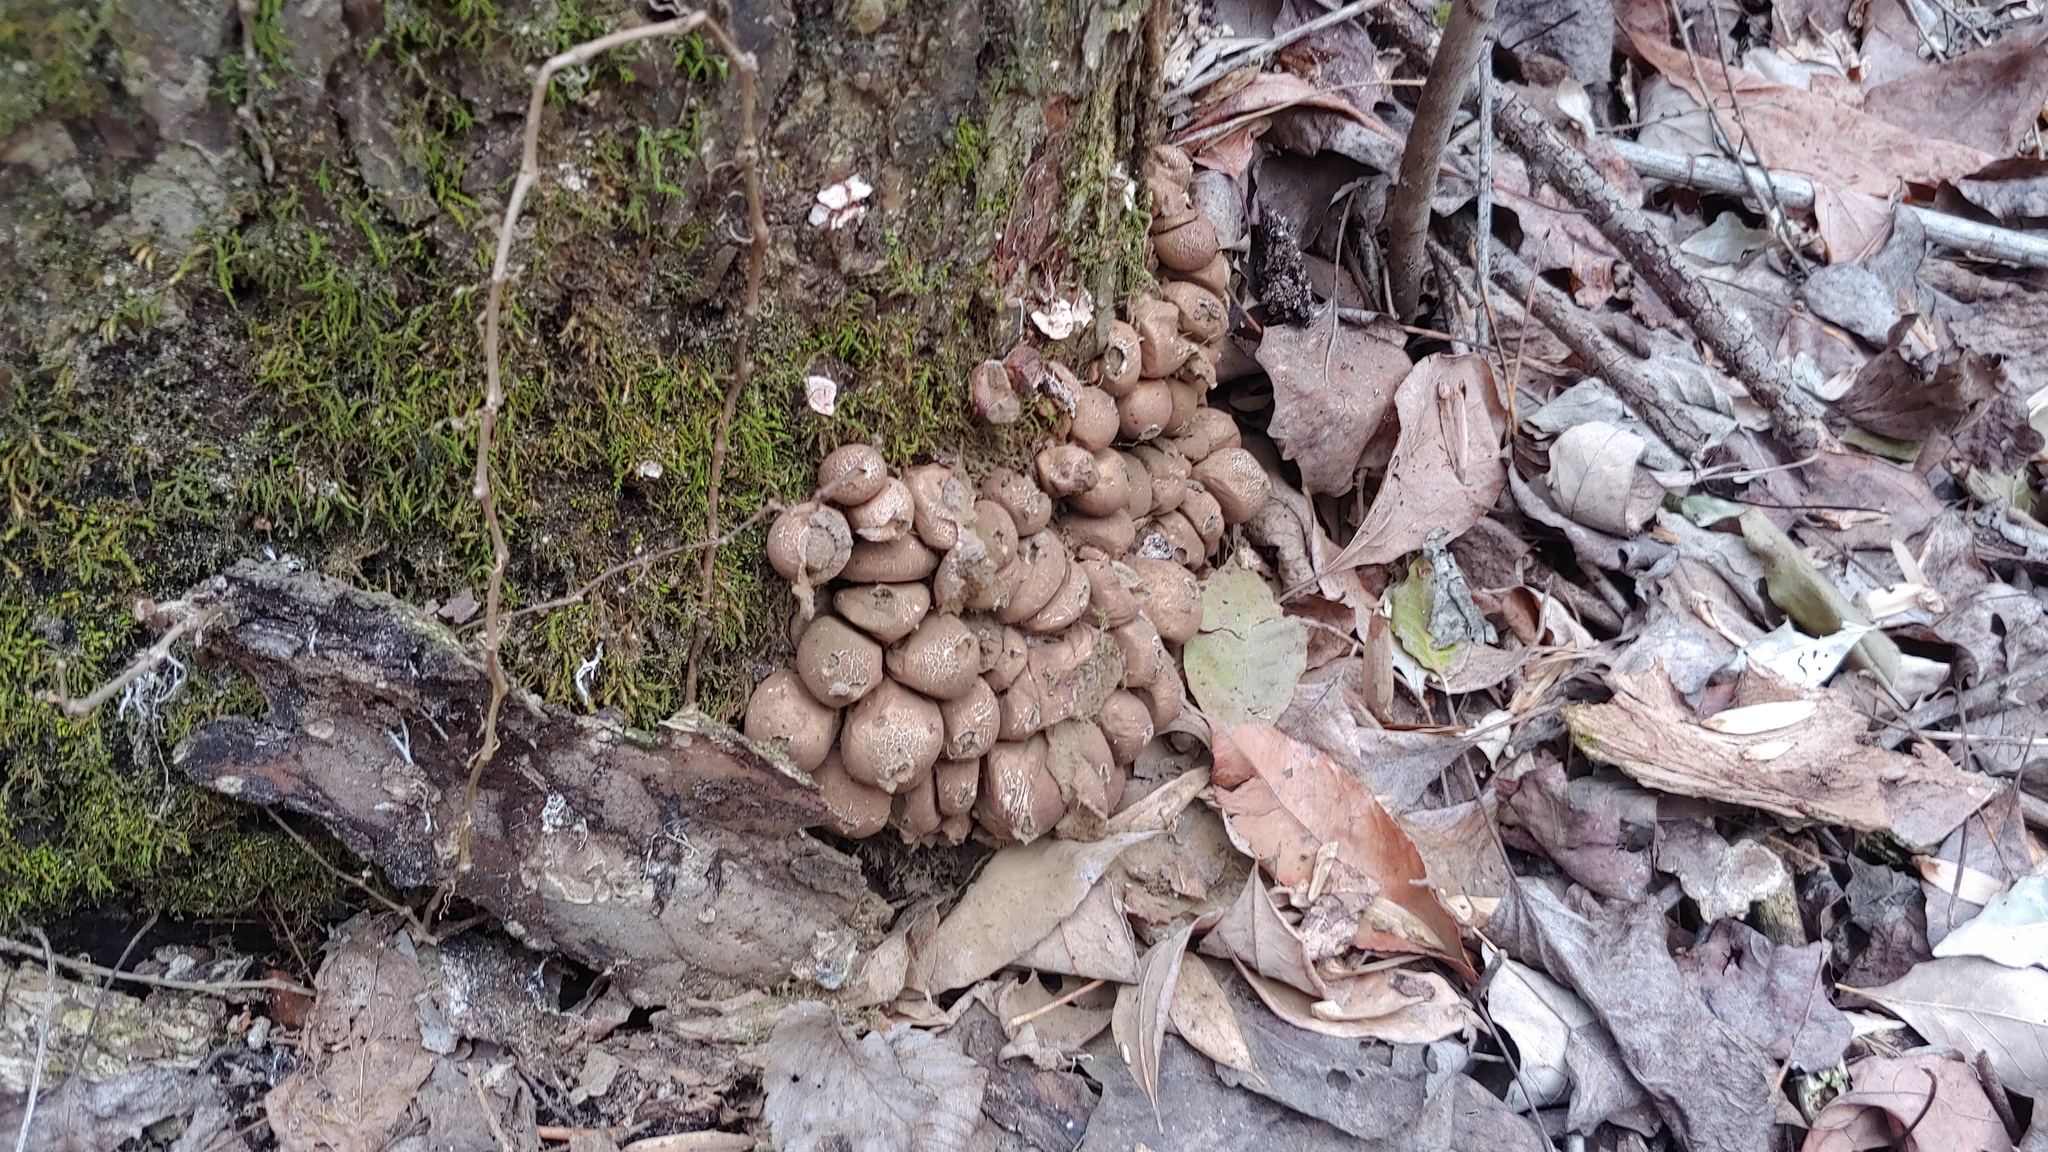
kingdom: Fungi
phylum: Basidiomycota
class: Agaricomycetes
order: Agaricales
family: Lycoperdaceae
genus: Apioperdon
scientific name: Apioperdon pyriforme
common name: Pear-shaped puffball
